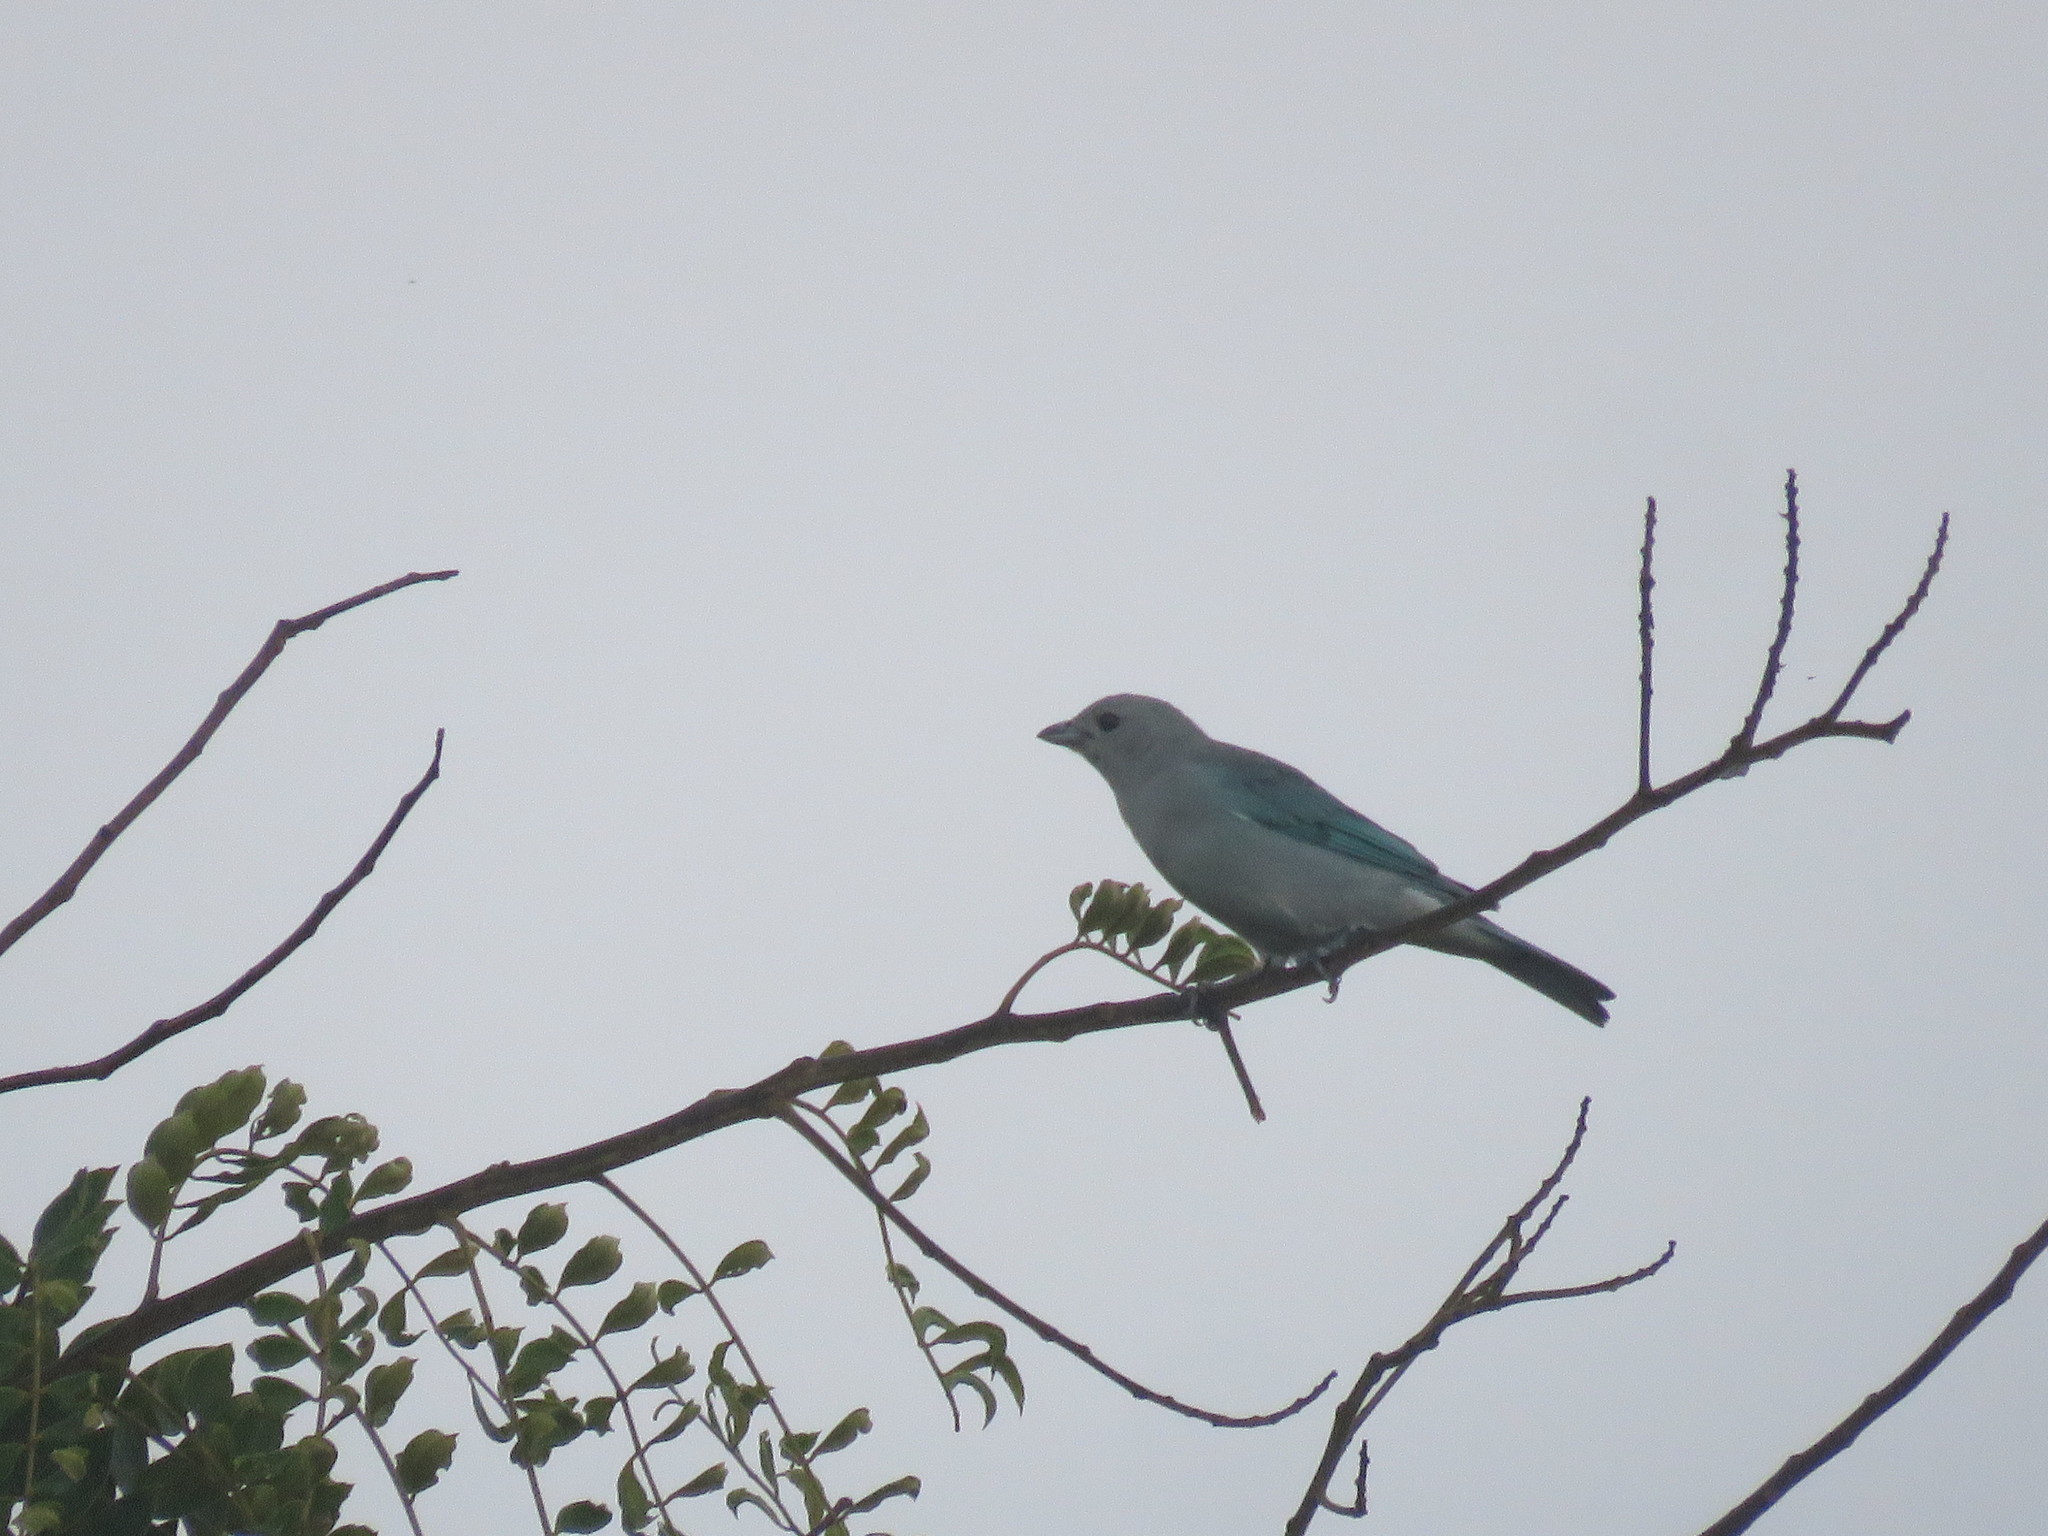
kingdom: Animalia
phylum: Chordata
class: Aves
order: Passeriformes
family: Thraupidae
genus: Thraupis
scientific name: Thraupis sayaca
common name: Sayaca tanager
